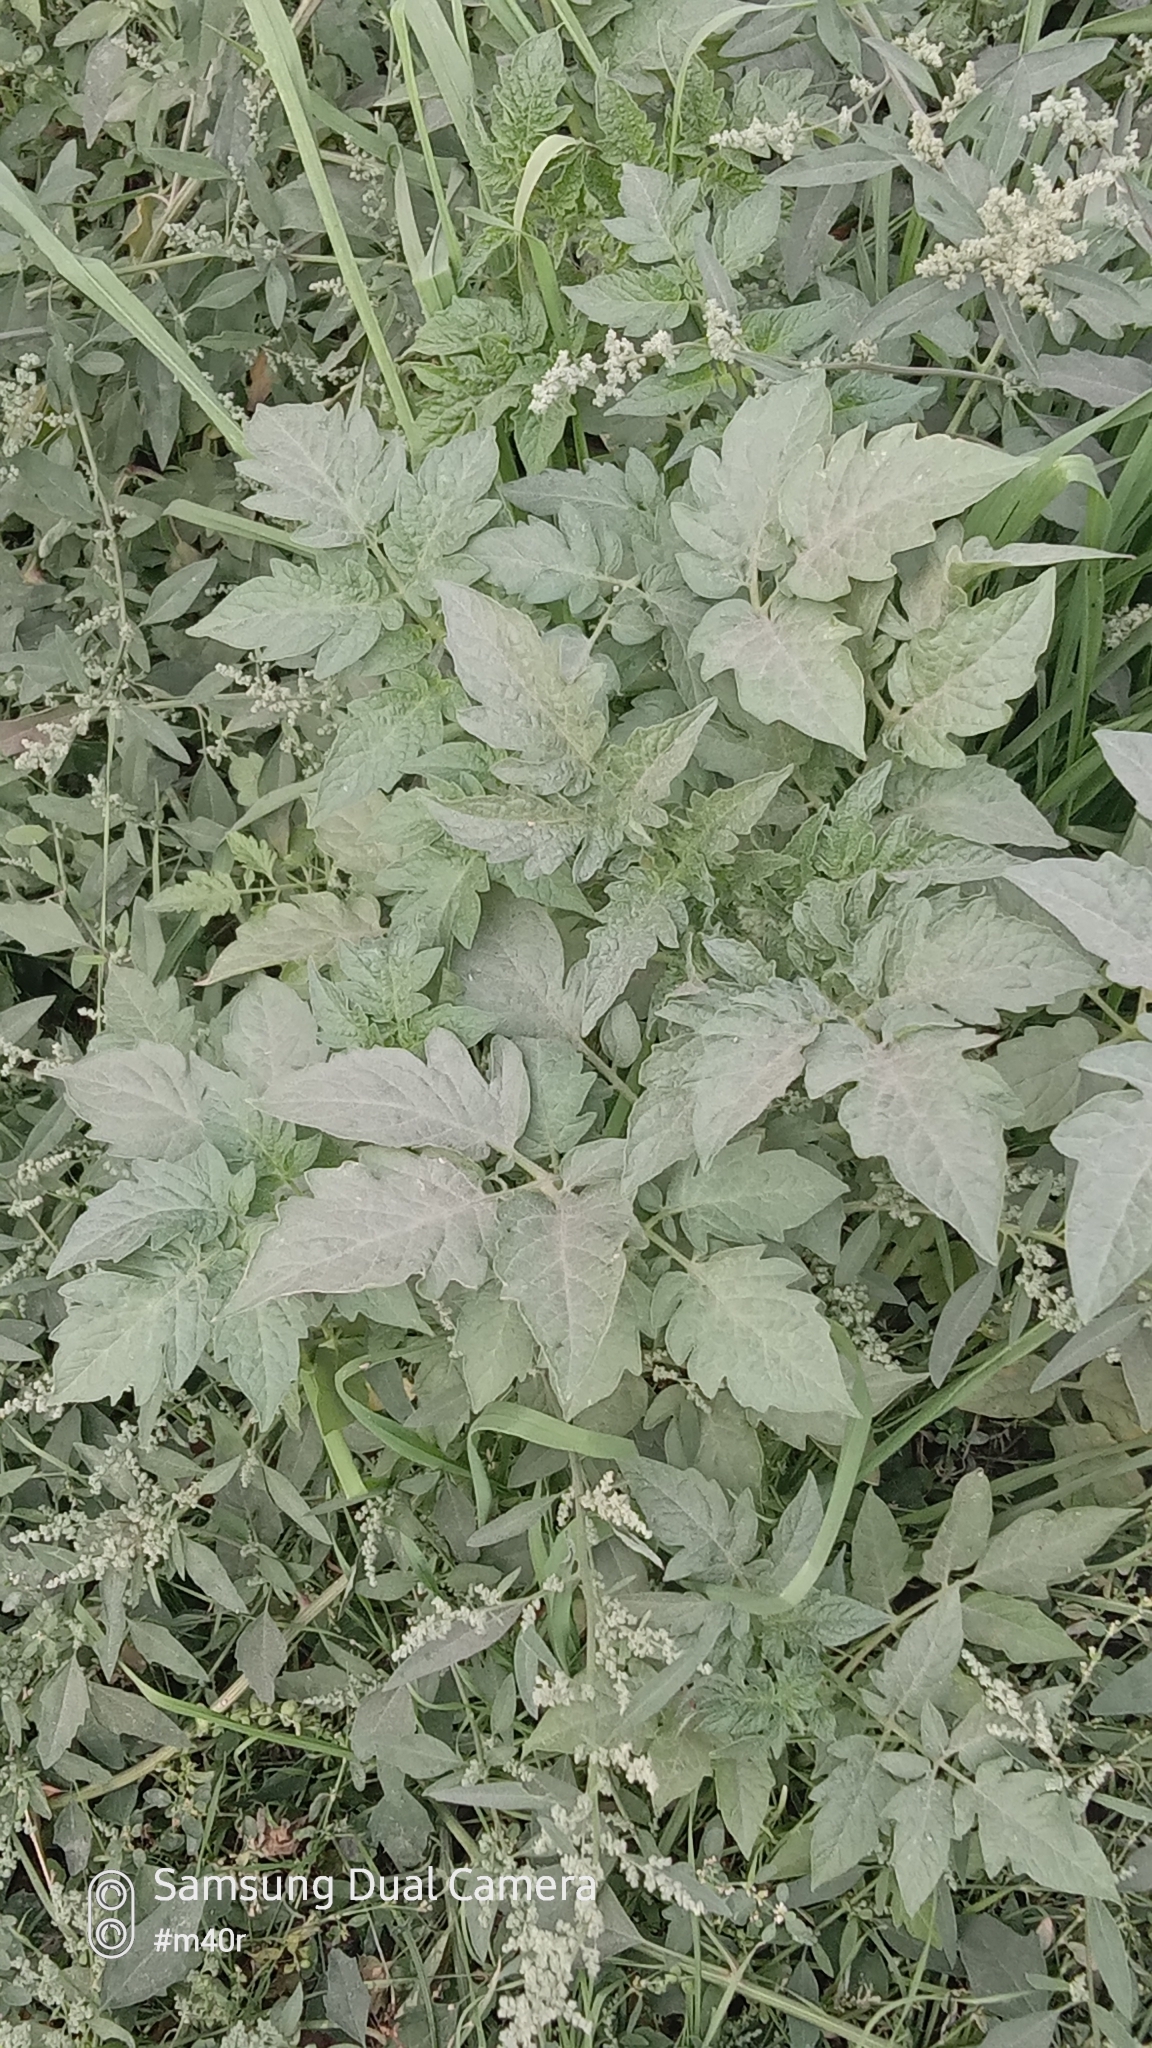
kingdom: Plantae
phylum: Tracheophyta
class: Magnoliopsida
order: Solanales
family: Solanaceae
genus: Solanum
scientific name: Solanum lycopersicum
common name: Garden tomato
